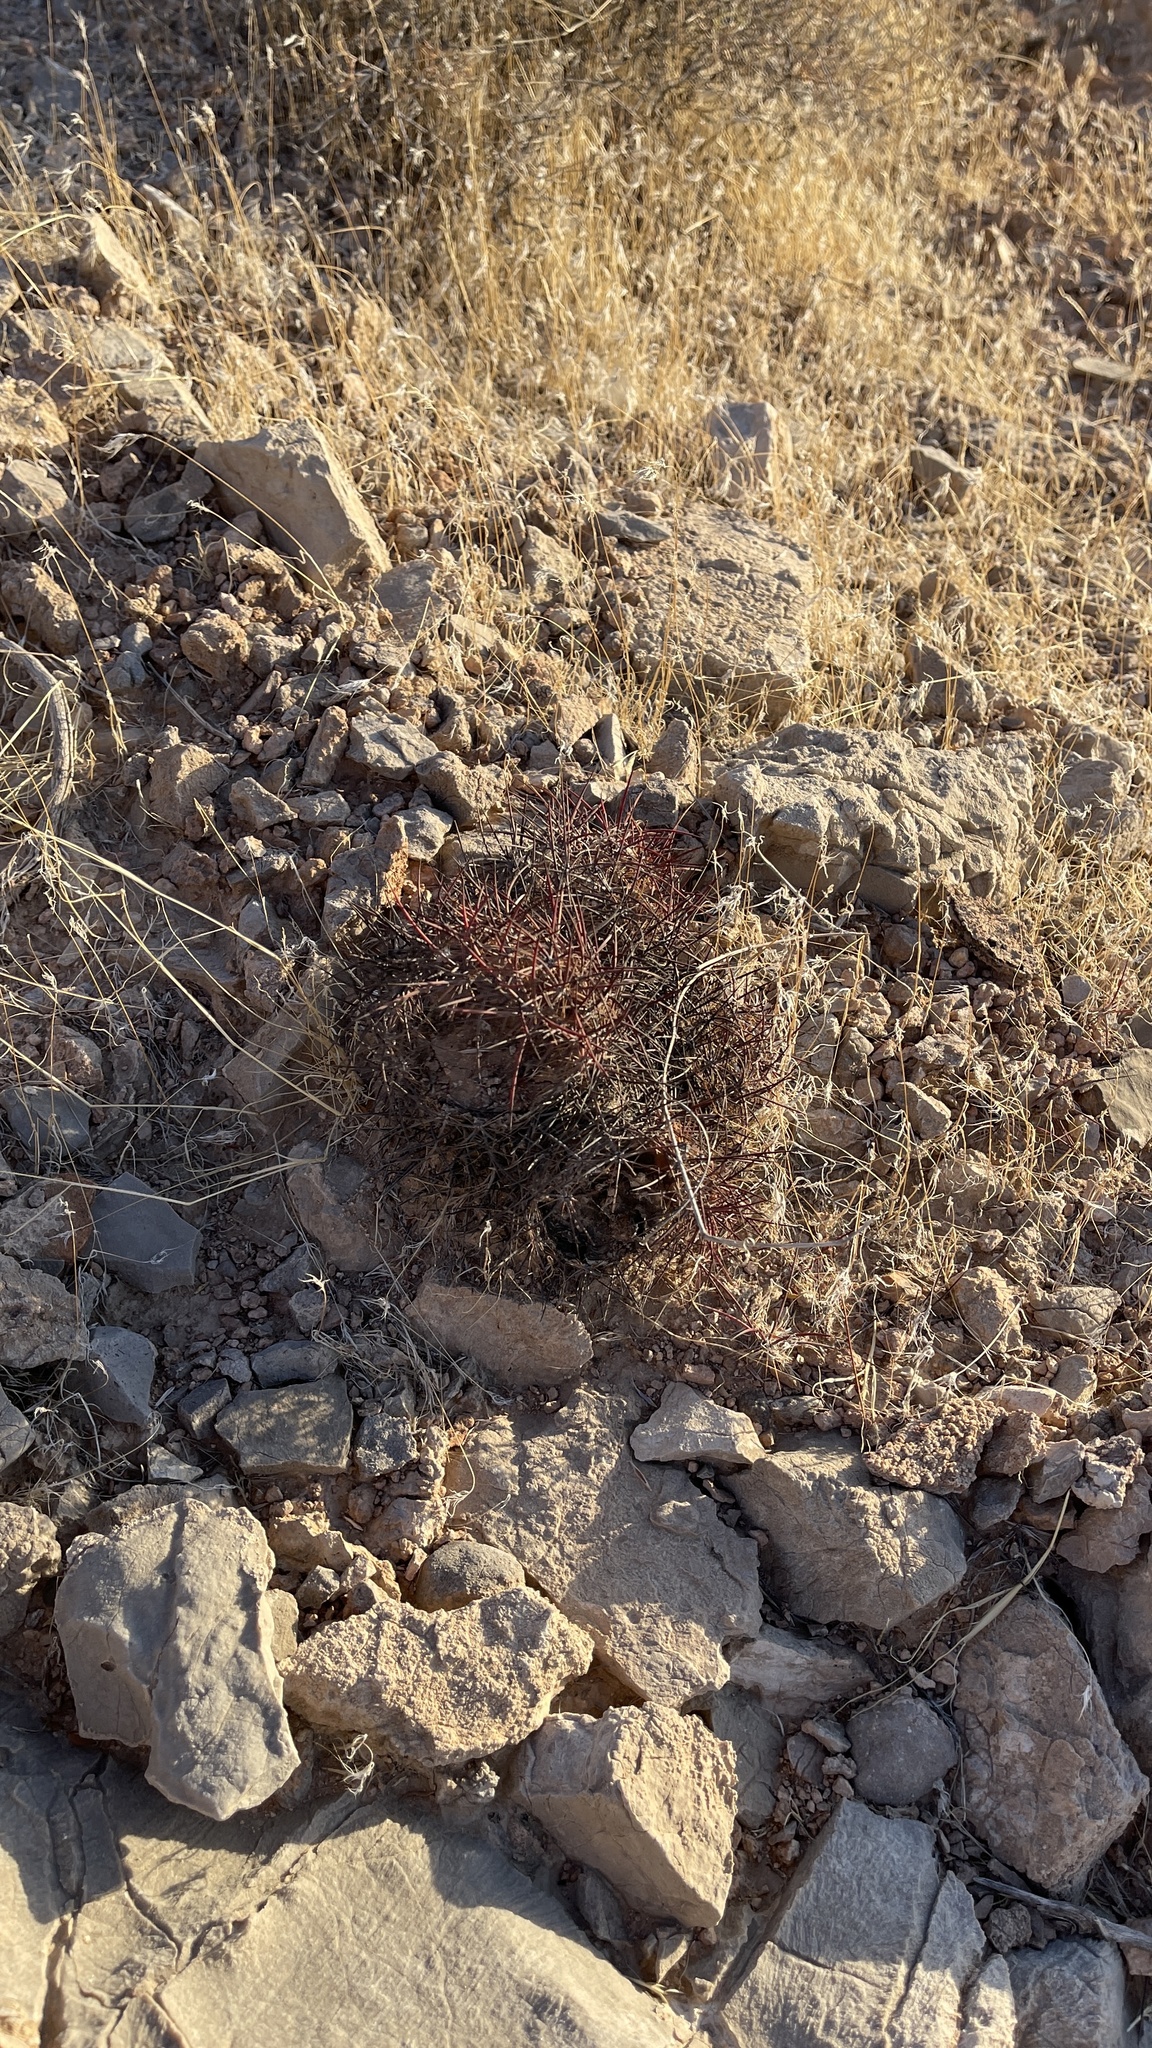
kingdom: Plantae
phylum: Tracheophyta
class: Magnoliopsida
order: Caryophyllales
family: Cactaceae
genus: Sclerocactus
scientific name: Sclerocactus johnsonii
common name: Eight-spine fishhook cactus
